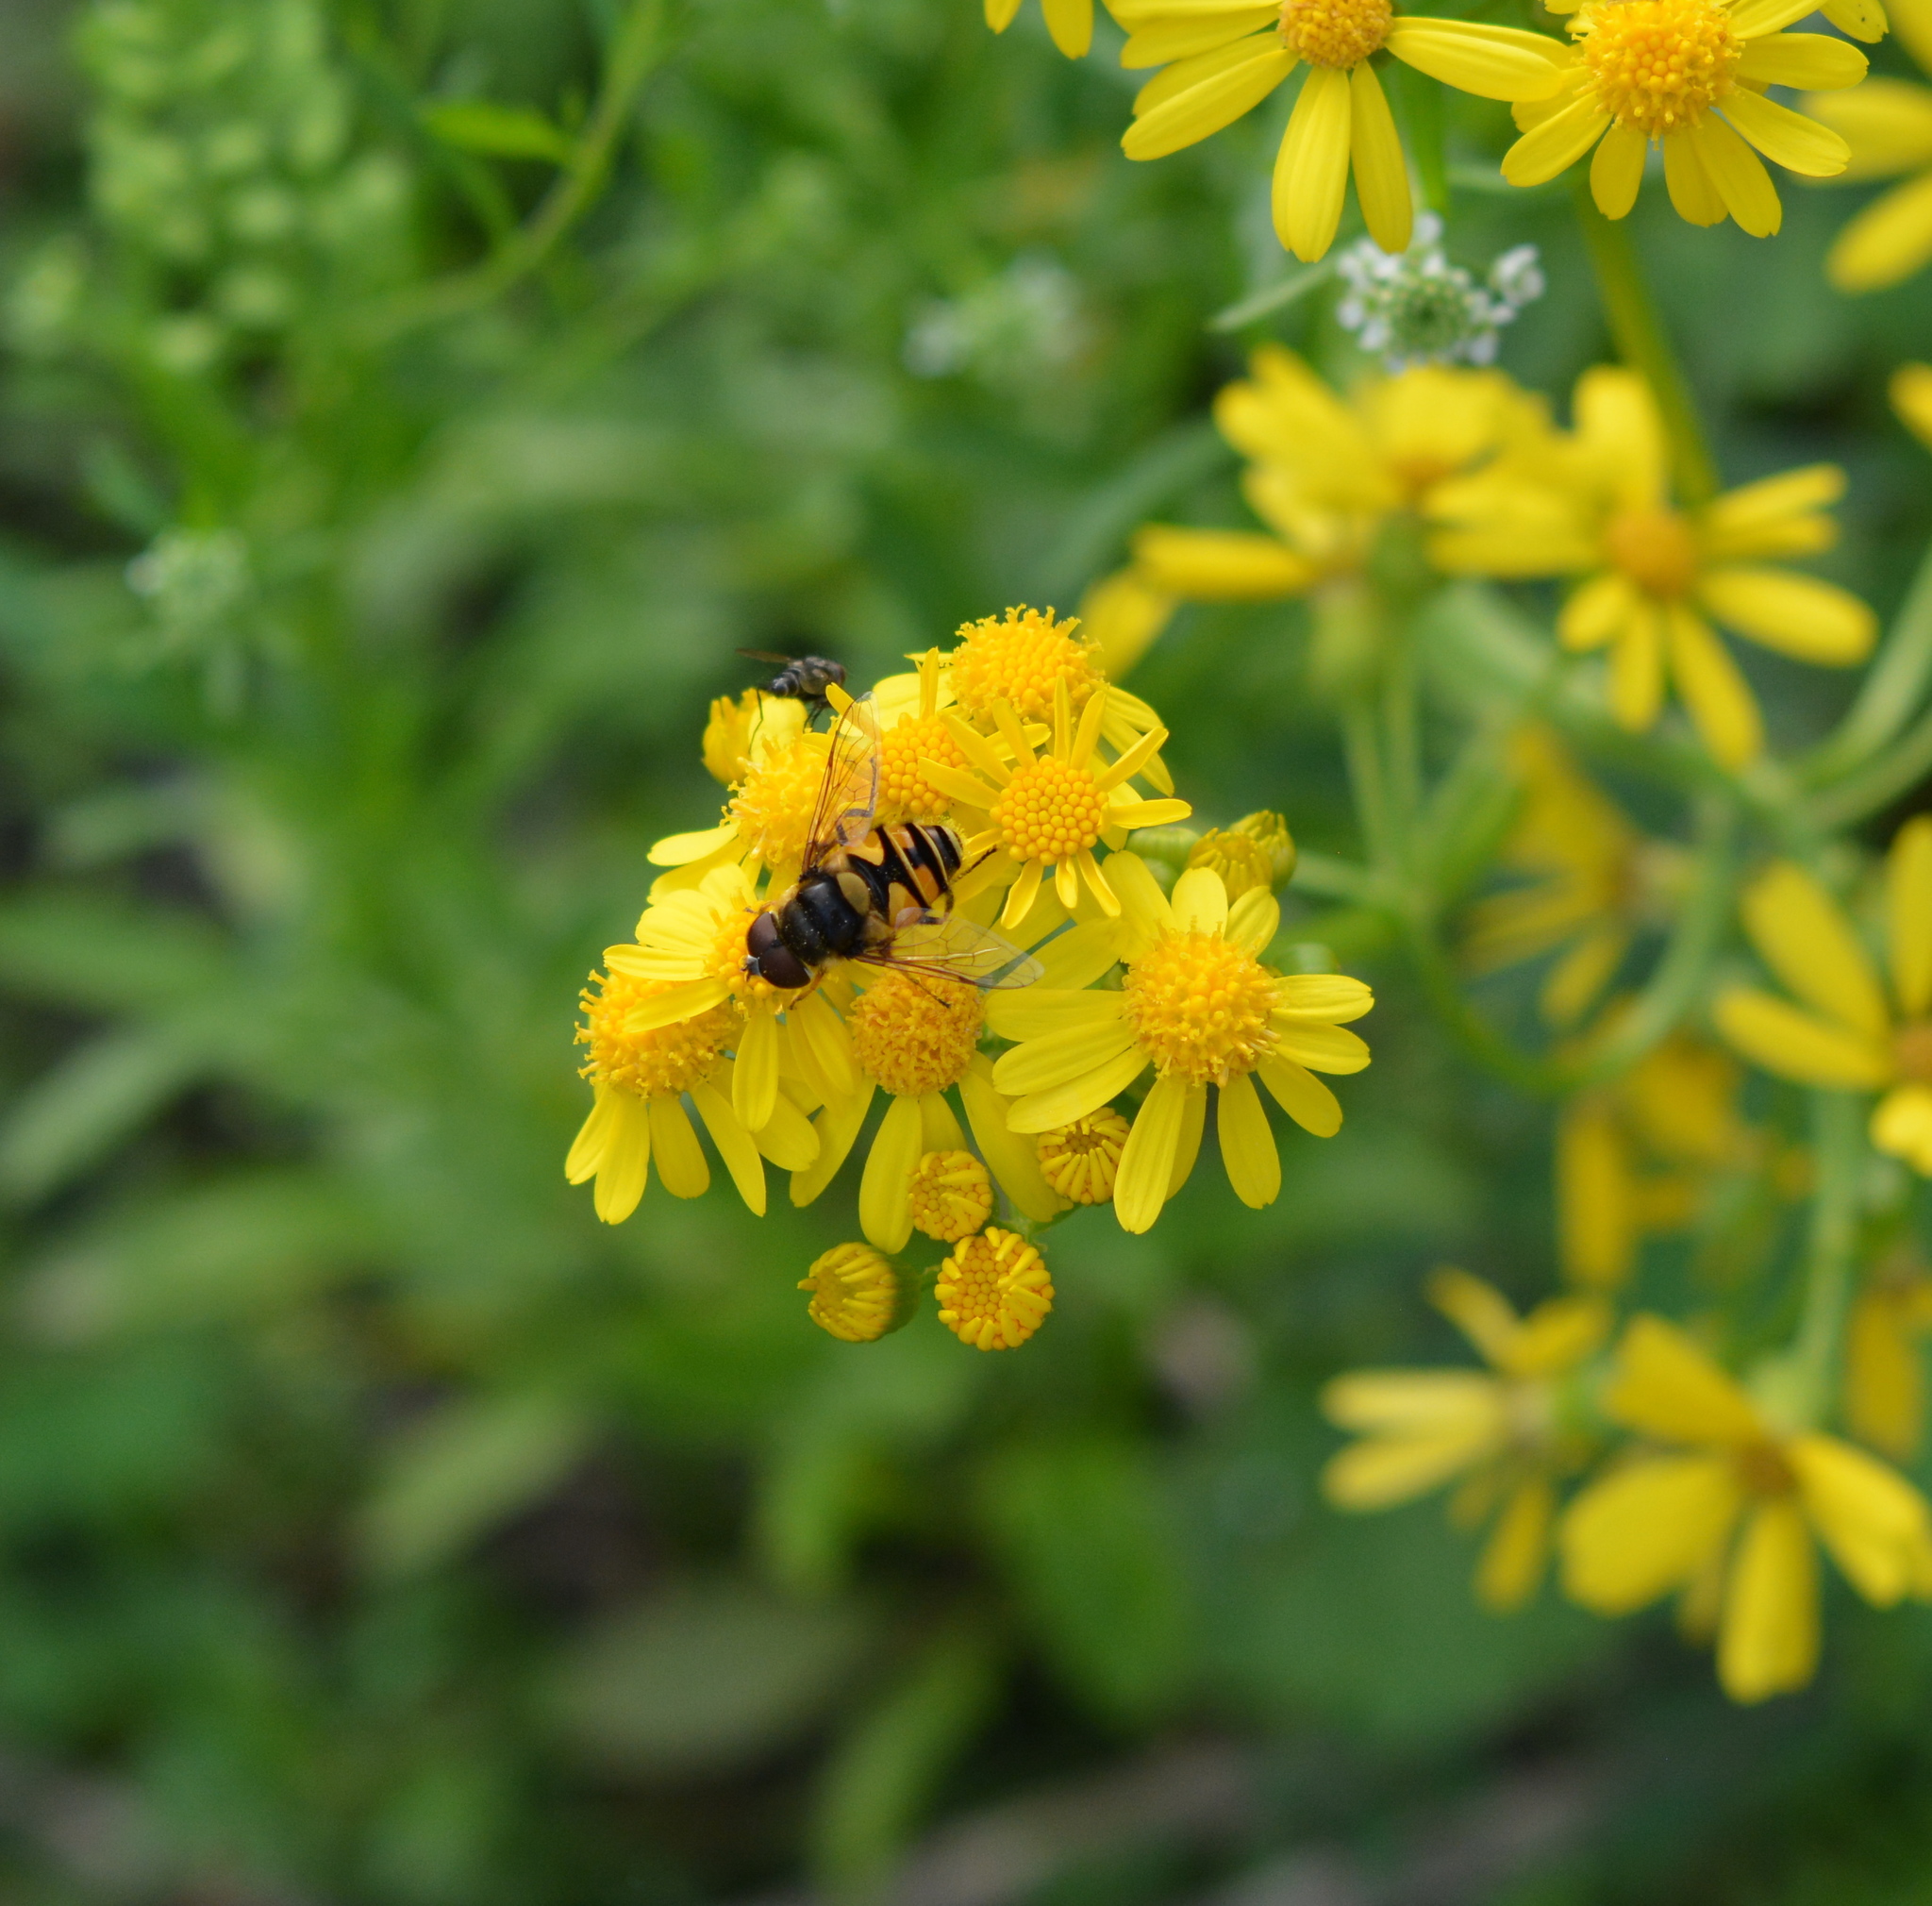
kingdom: Animalia
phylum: Arthropoda
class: Insecta
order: Diptera
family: Syrphidae
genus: Eristalis
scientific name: Eristalis transversa
